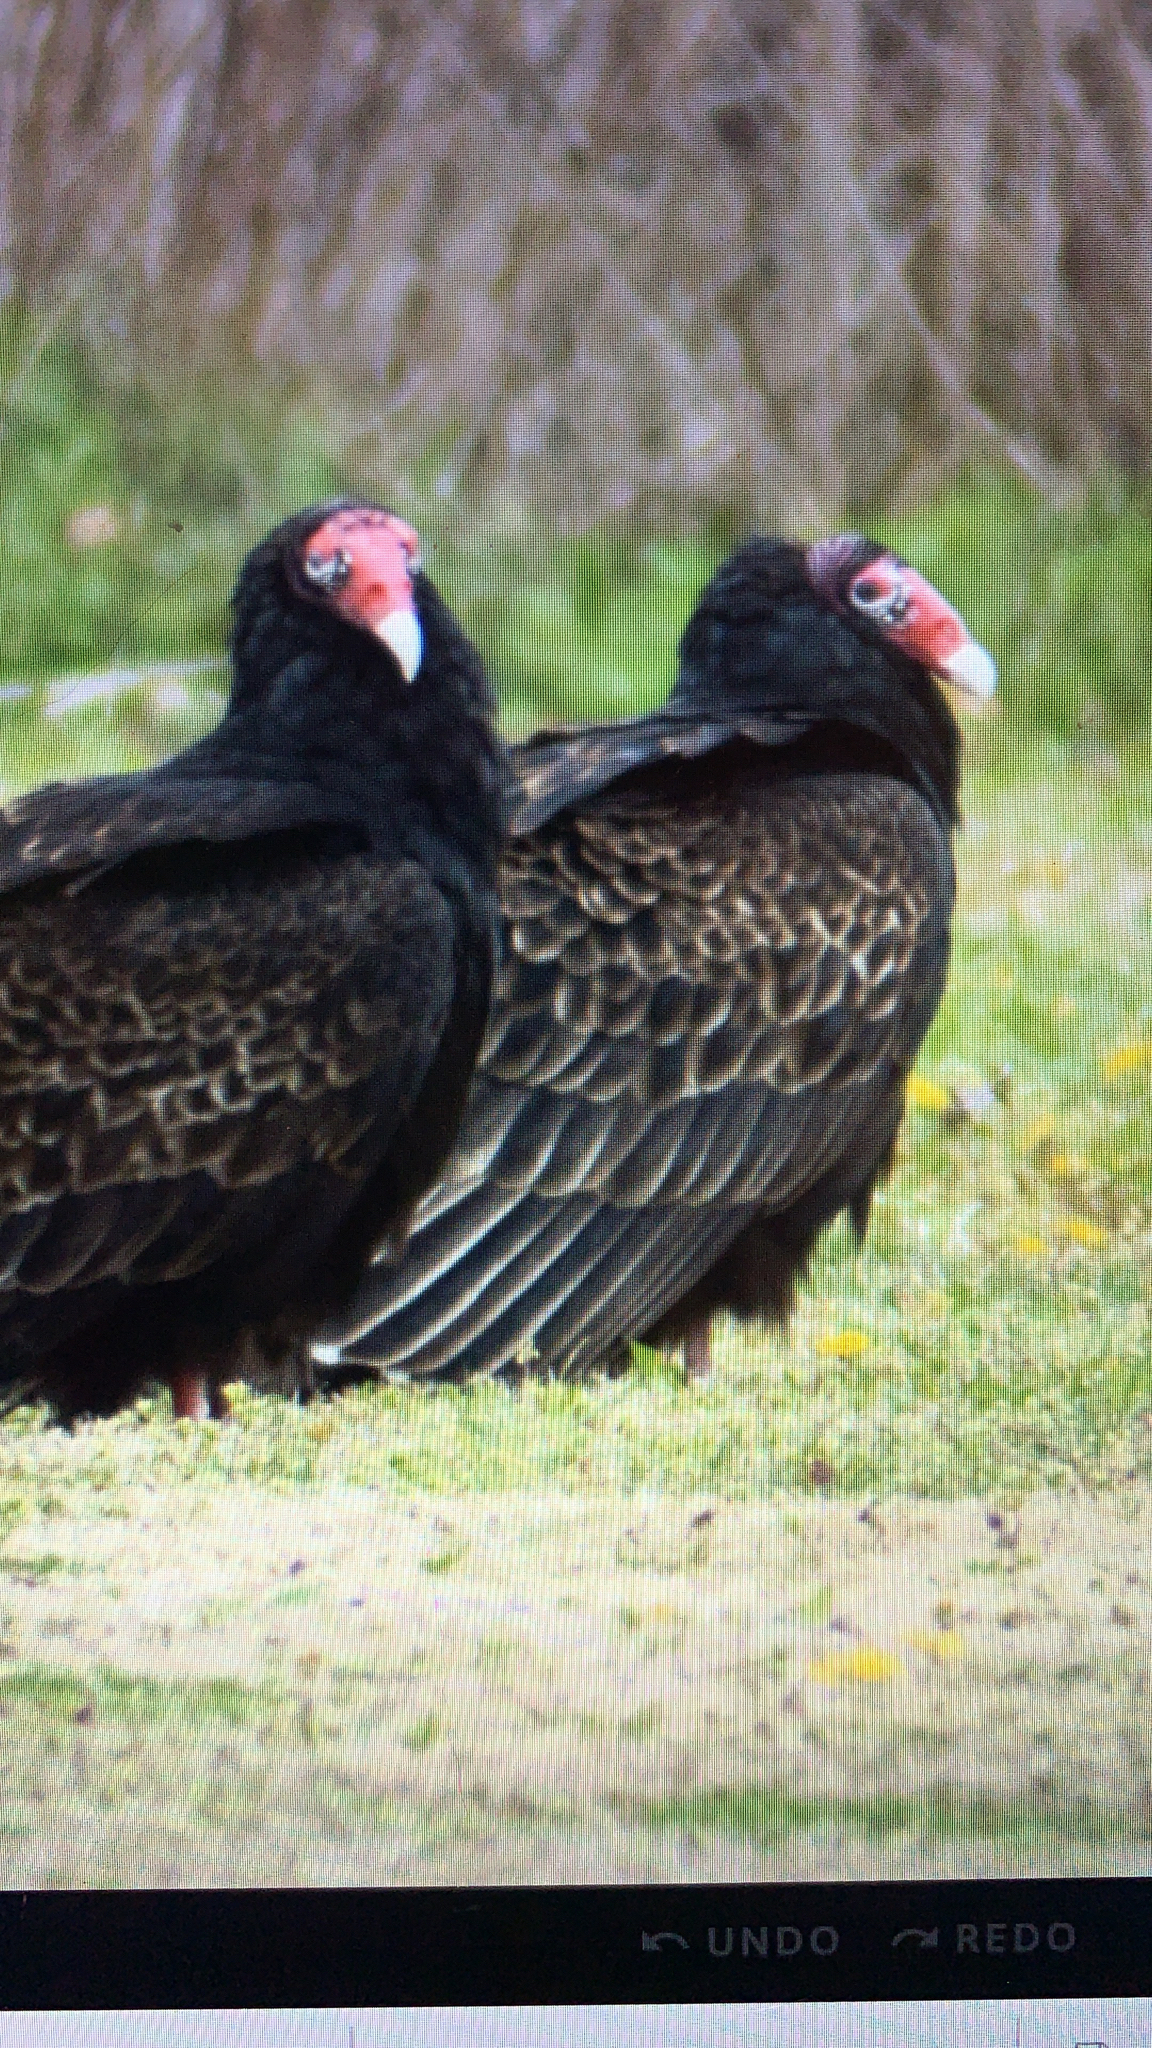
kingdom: Animalia
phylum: Chordata
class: Aves
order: Accipitriformes
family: Cathartidae
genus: Cathartes
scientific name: Cathartes aura
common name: Turkey vulture
